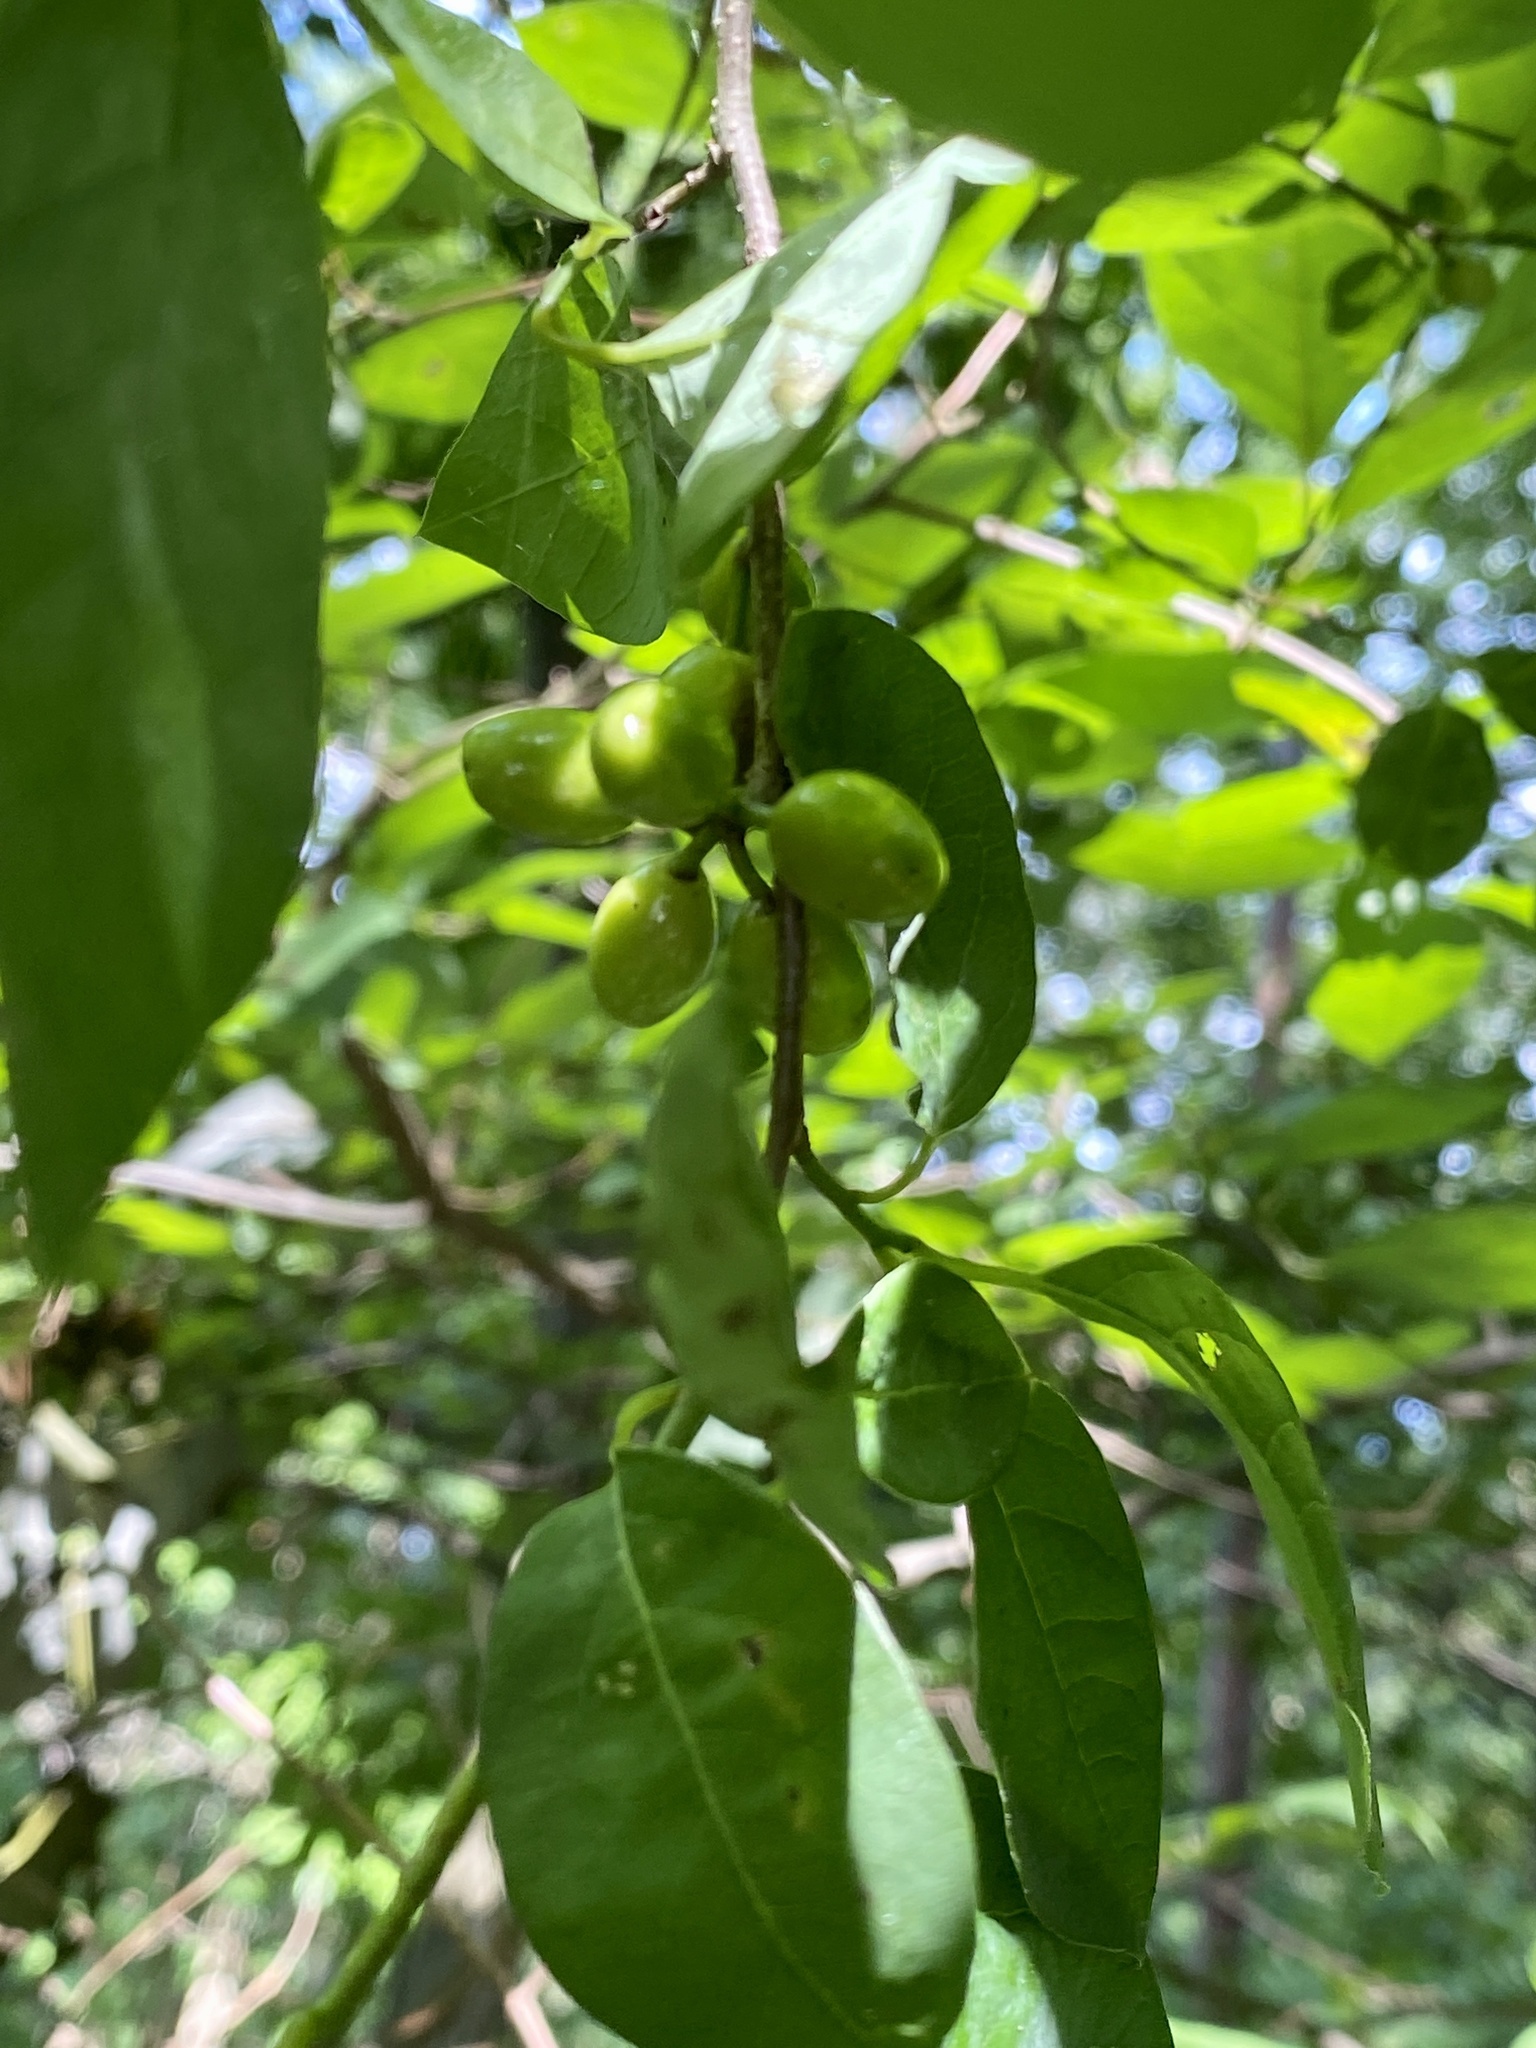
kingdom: Plantae
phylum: Tracheophyta
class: Magnoliopsida
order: Laurales
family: Lauraceae
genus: Lindera
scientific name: Lindera benzoin
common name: Spicebush
